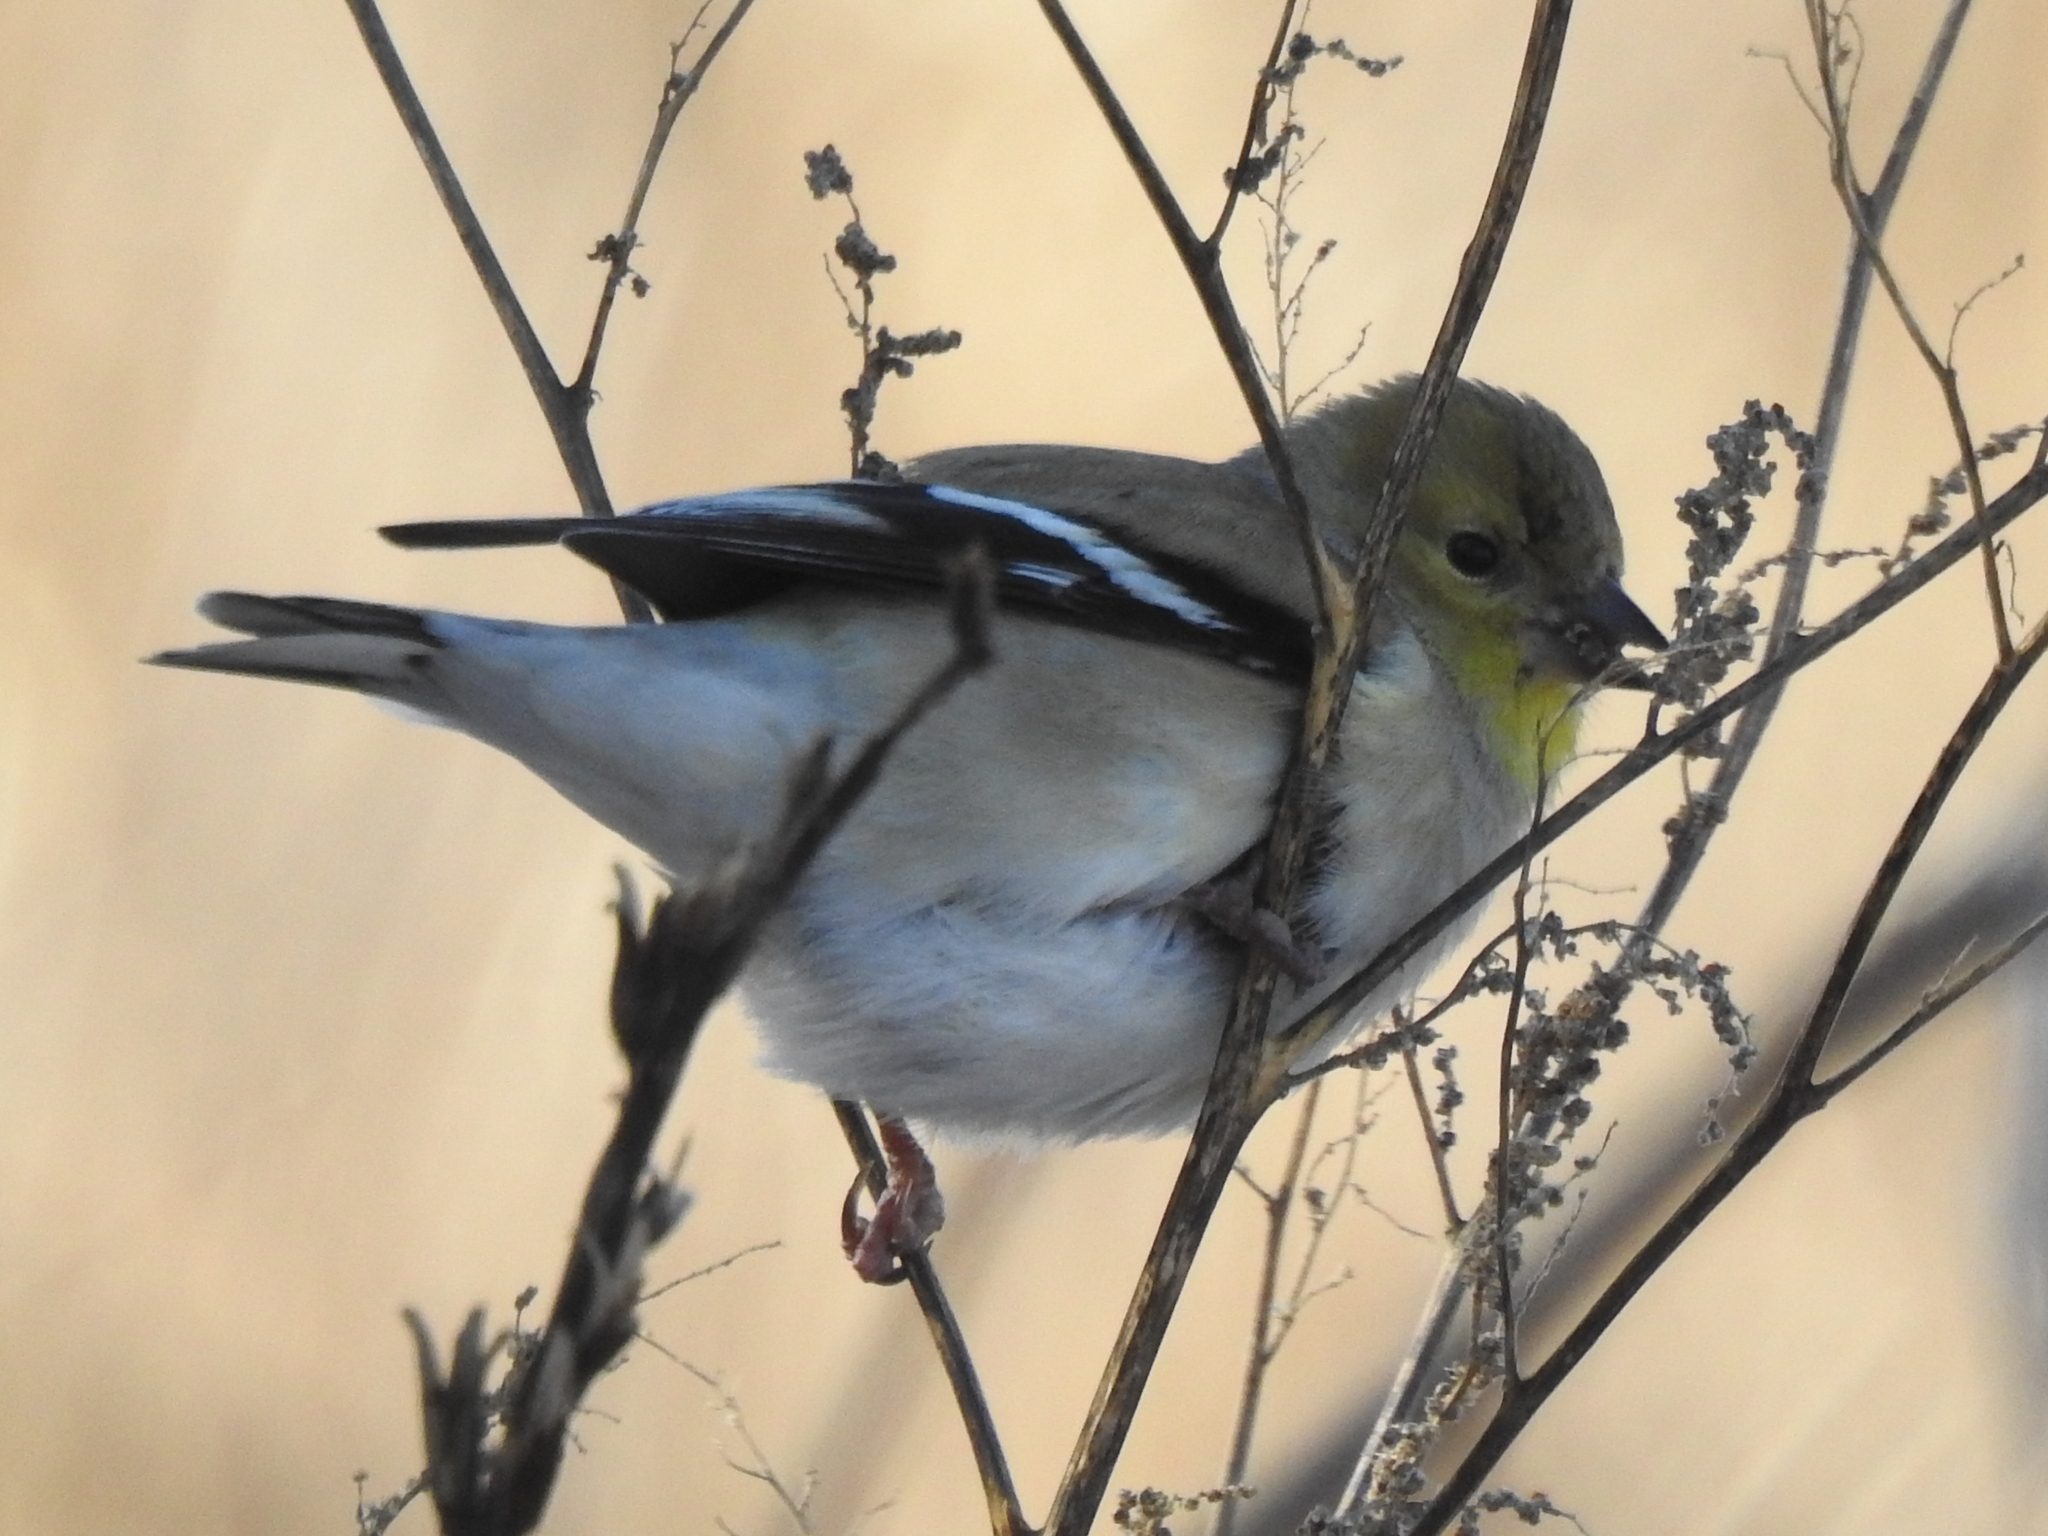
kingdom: Animalia
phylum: Chordata
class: Aves
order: Passeriformes
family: Fringillidae
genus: Spinus
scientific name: Spinus tristis
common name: American goldfinch
